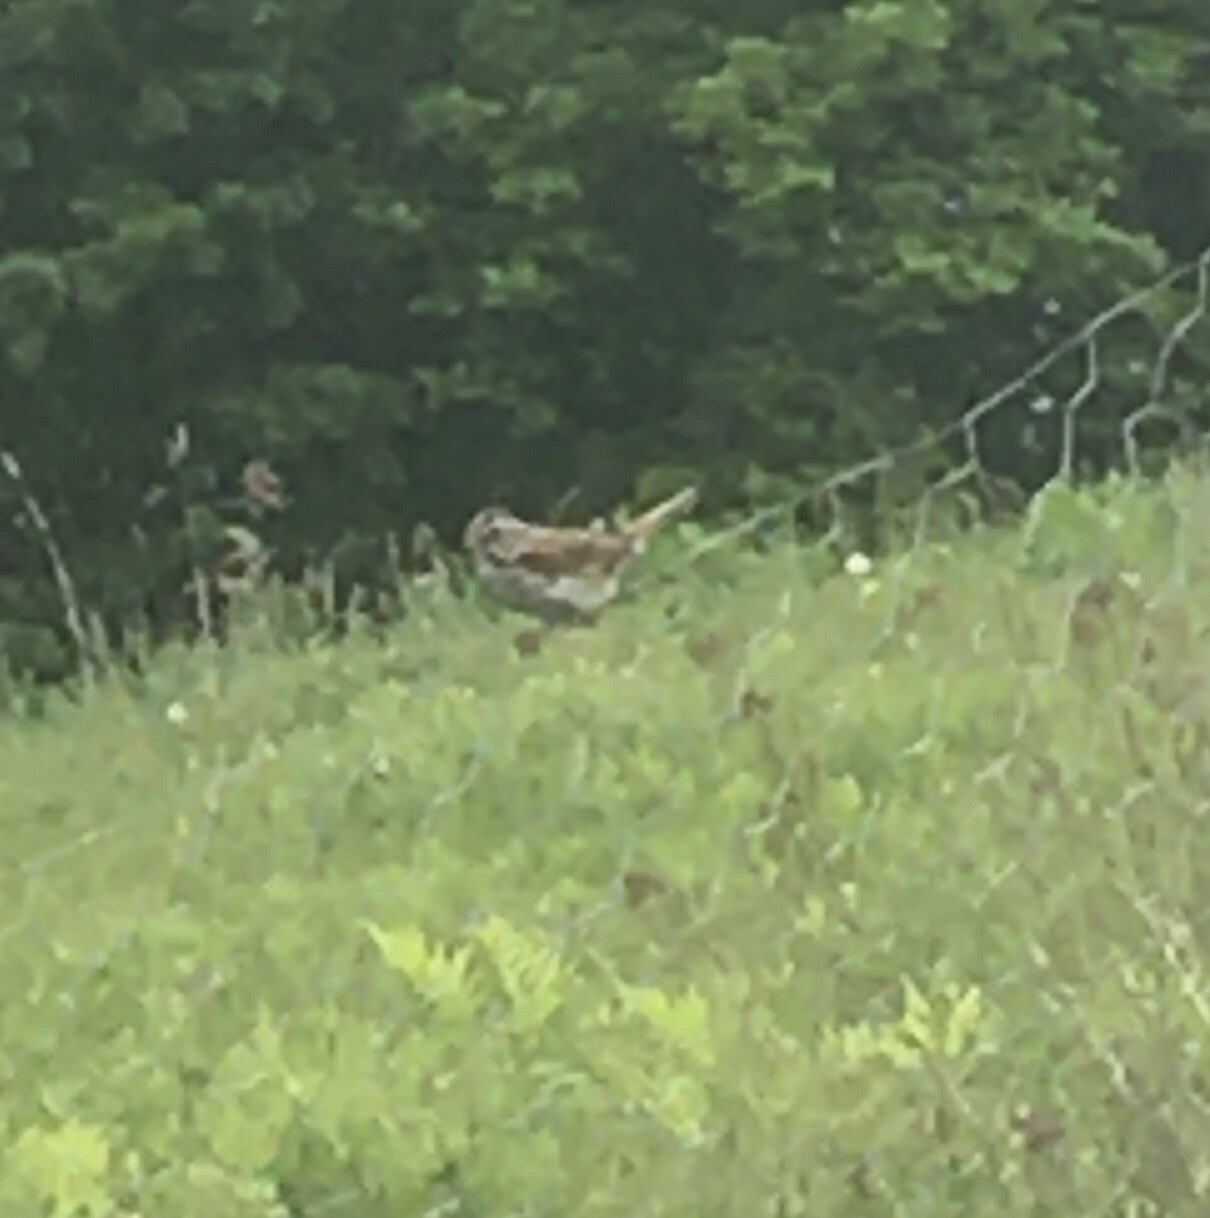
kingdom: Animalia
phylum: Chordata
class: Aves
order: Passeriformes
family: Passerellidae
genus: Melospiza
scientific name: Melospiza melodia
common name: Song sparrow
